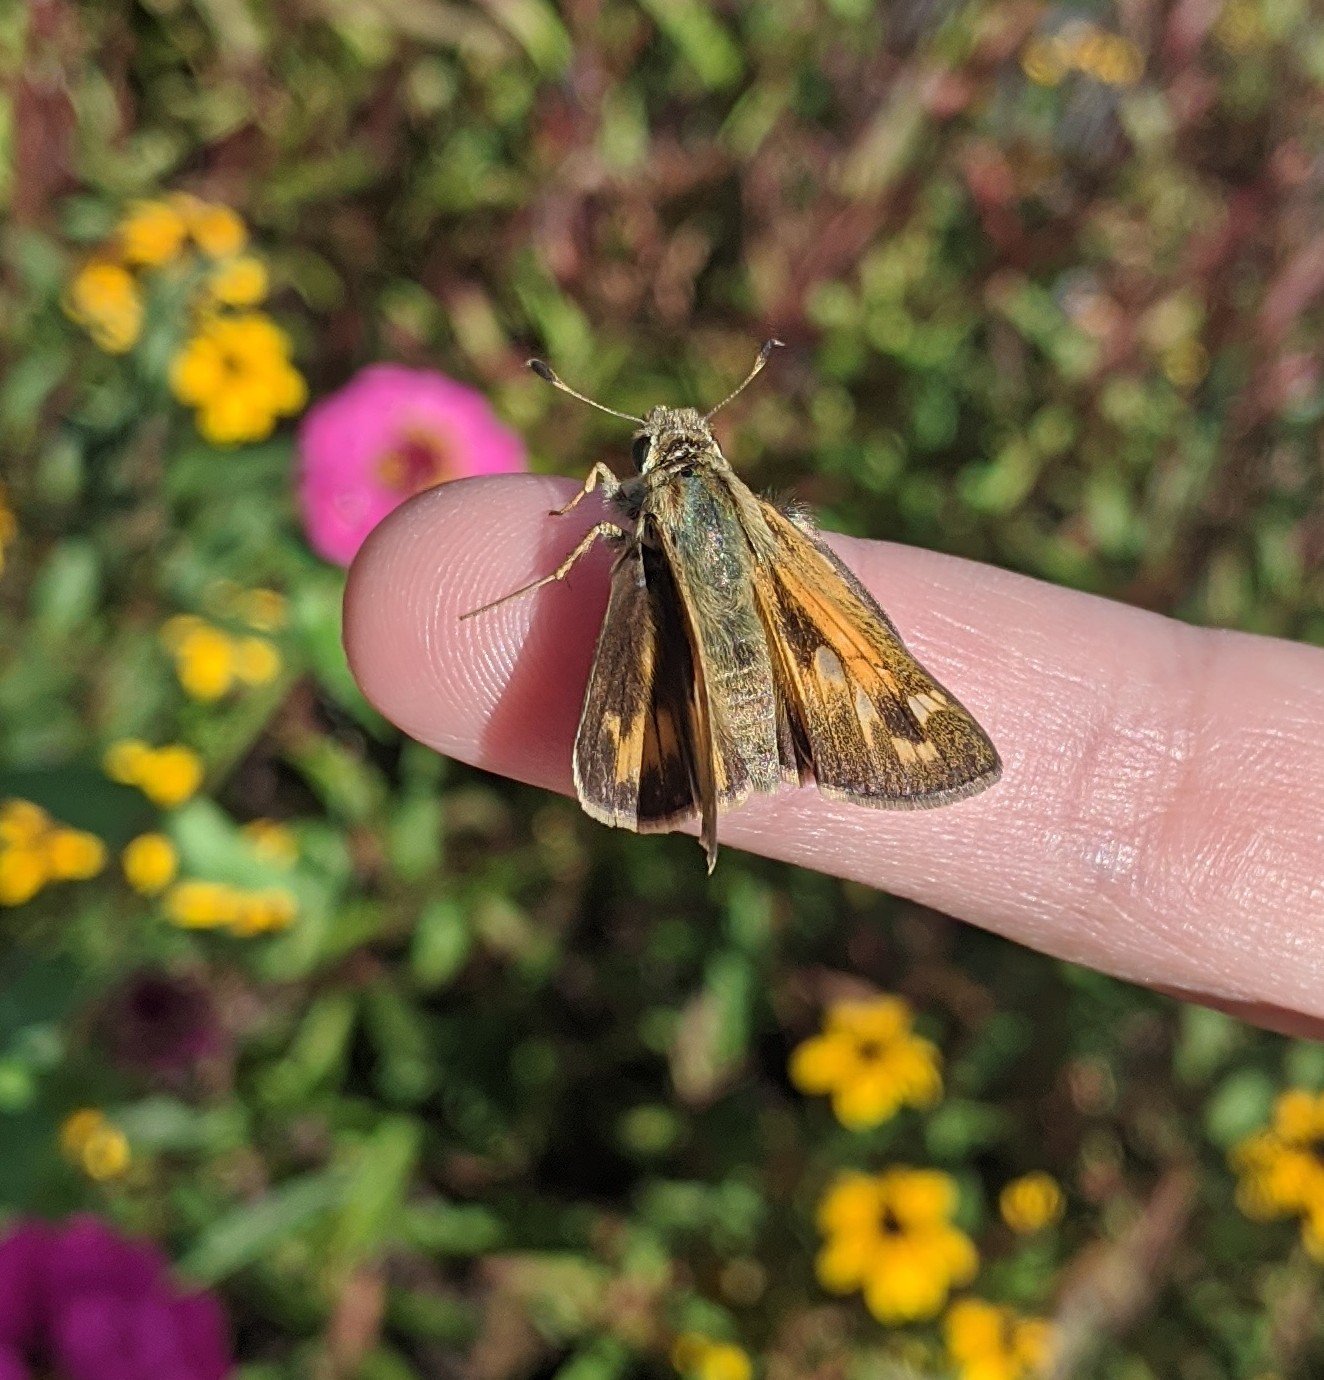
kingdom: Animalia
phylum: Arthropoda
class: Insecta
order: Lepidoptera
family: Hesperiidae
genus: Atalopedes
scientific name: Atalopedes
